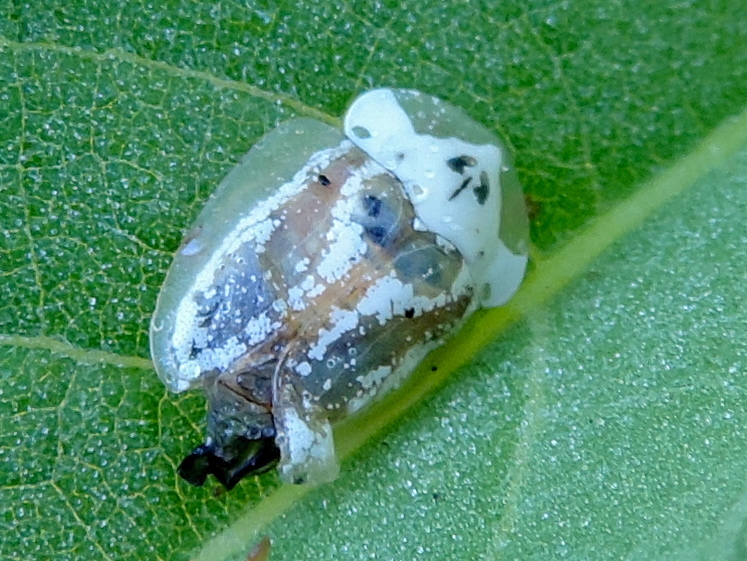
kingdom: Animalia
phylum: Arthropoda
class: Insecta
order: Coleoptera
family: Chrysomelidae
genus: Physonota
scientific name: Physonota arizonae
